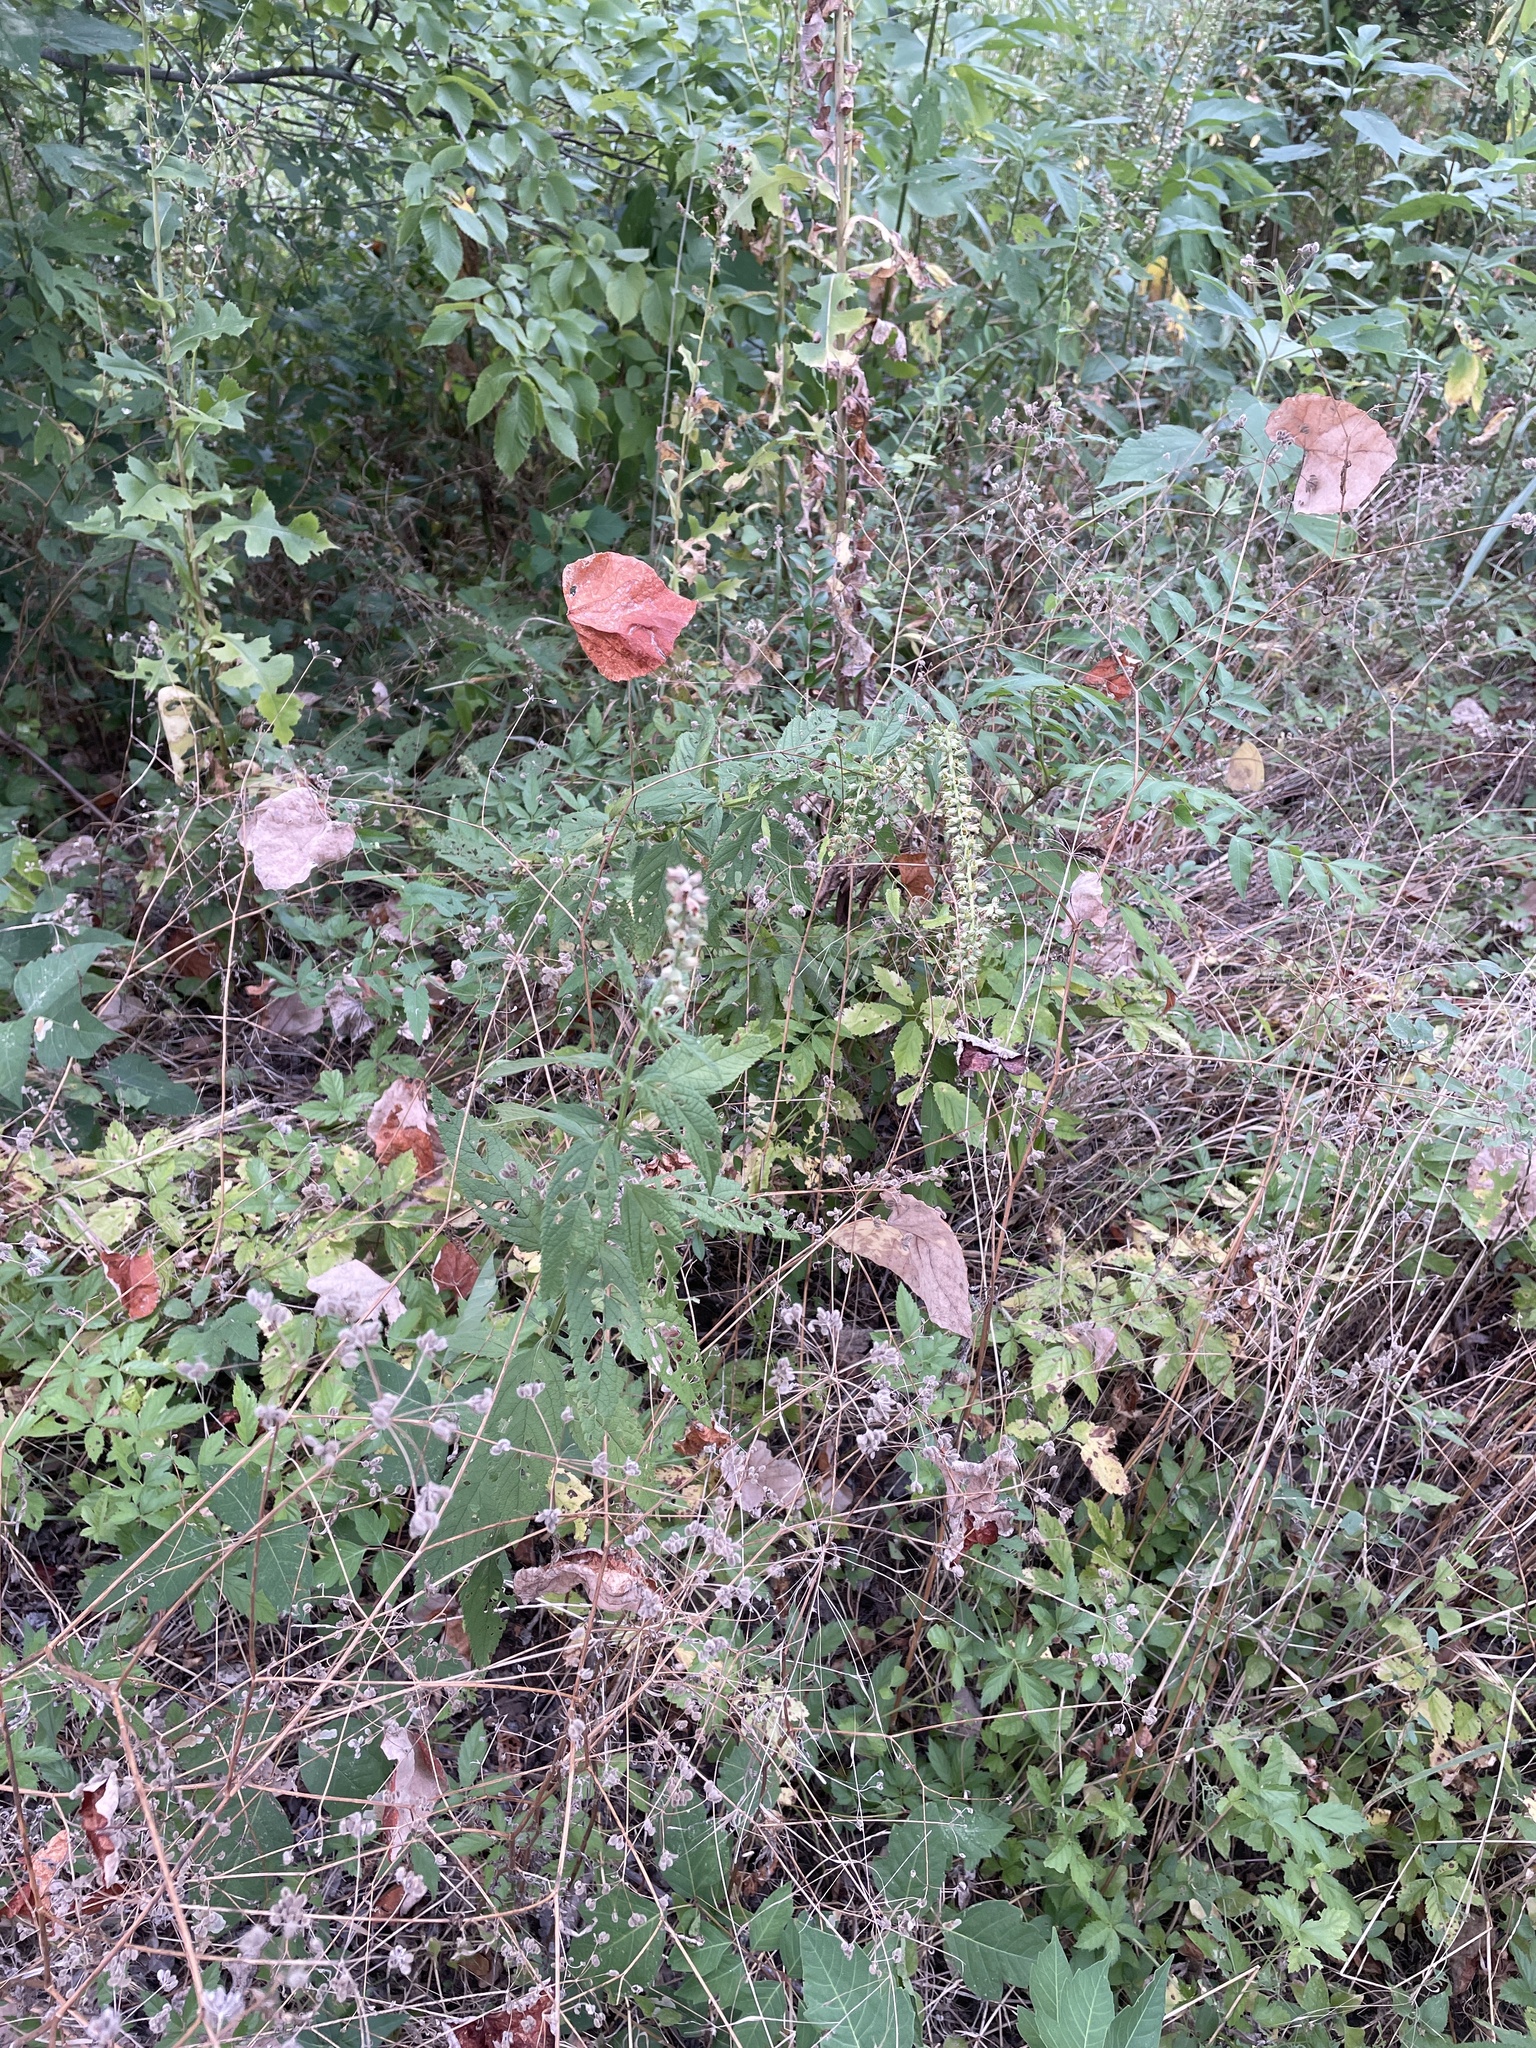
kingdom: Plantae
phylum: Tracheophyta
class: Magnoliopsida
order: Lamiales
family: Lamiaceae
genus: Teucrium
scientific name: Teucrium canadense
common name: American germander
